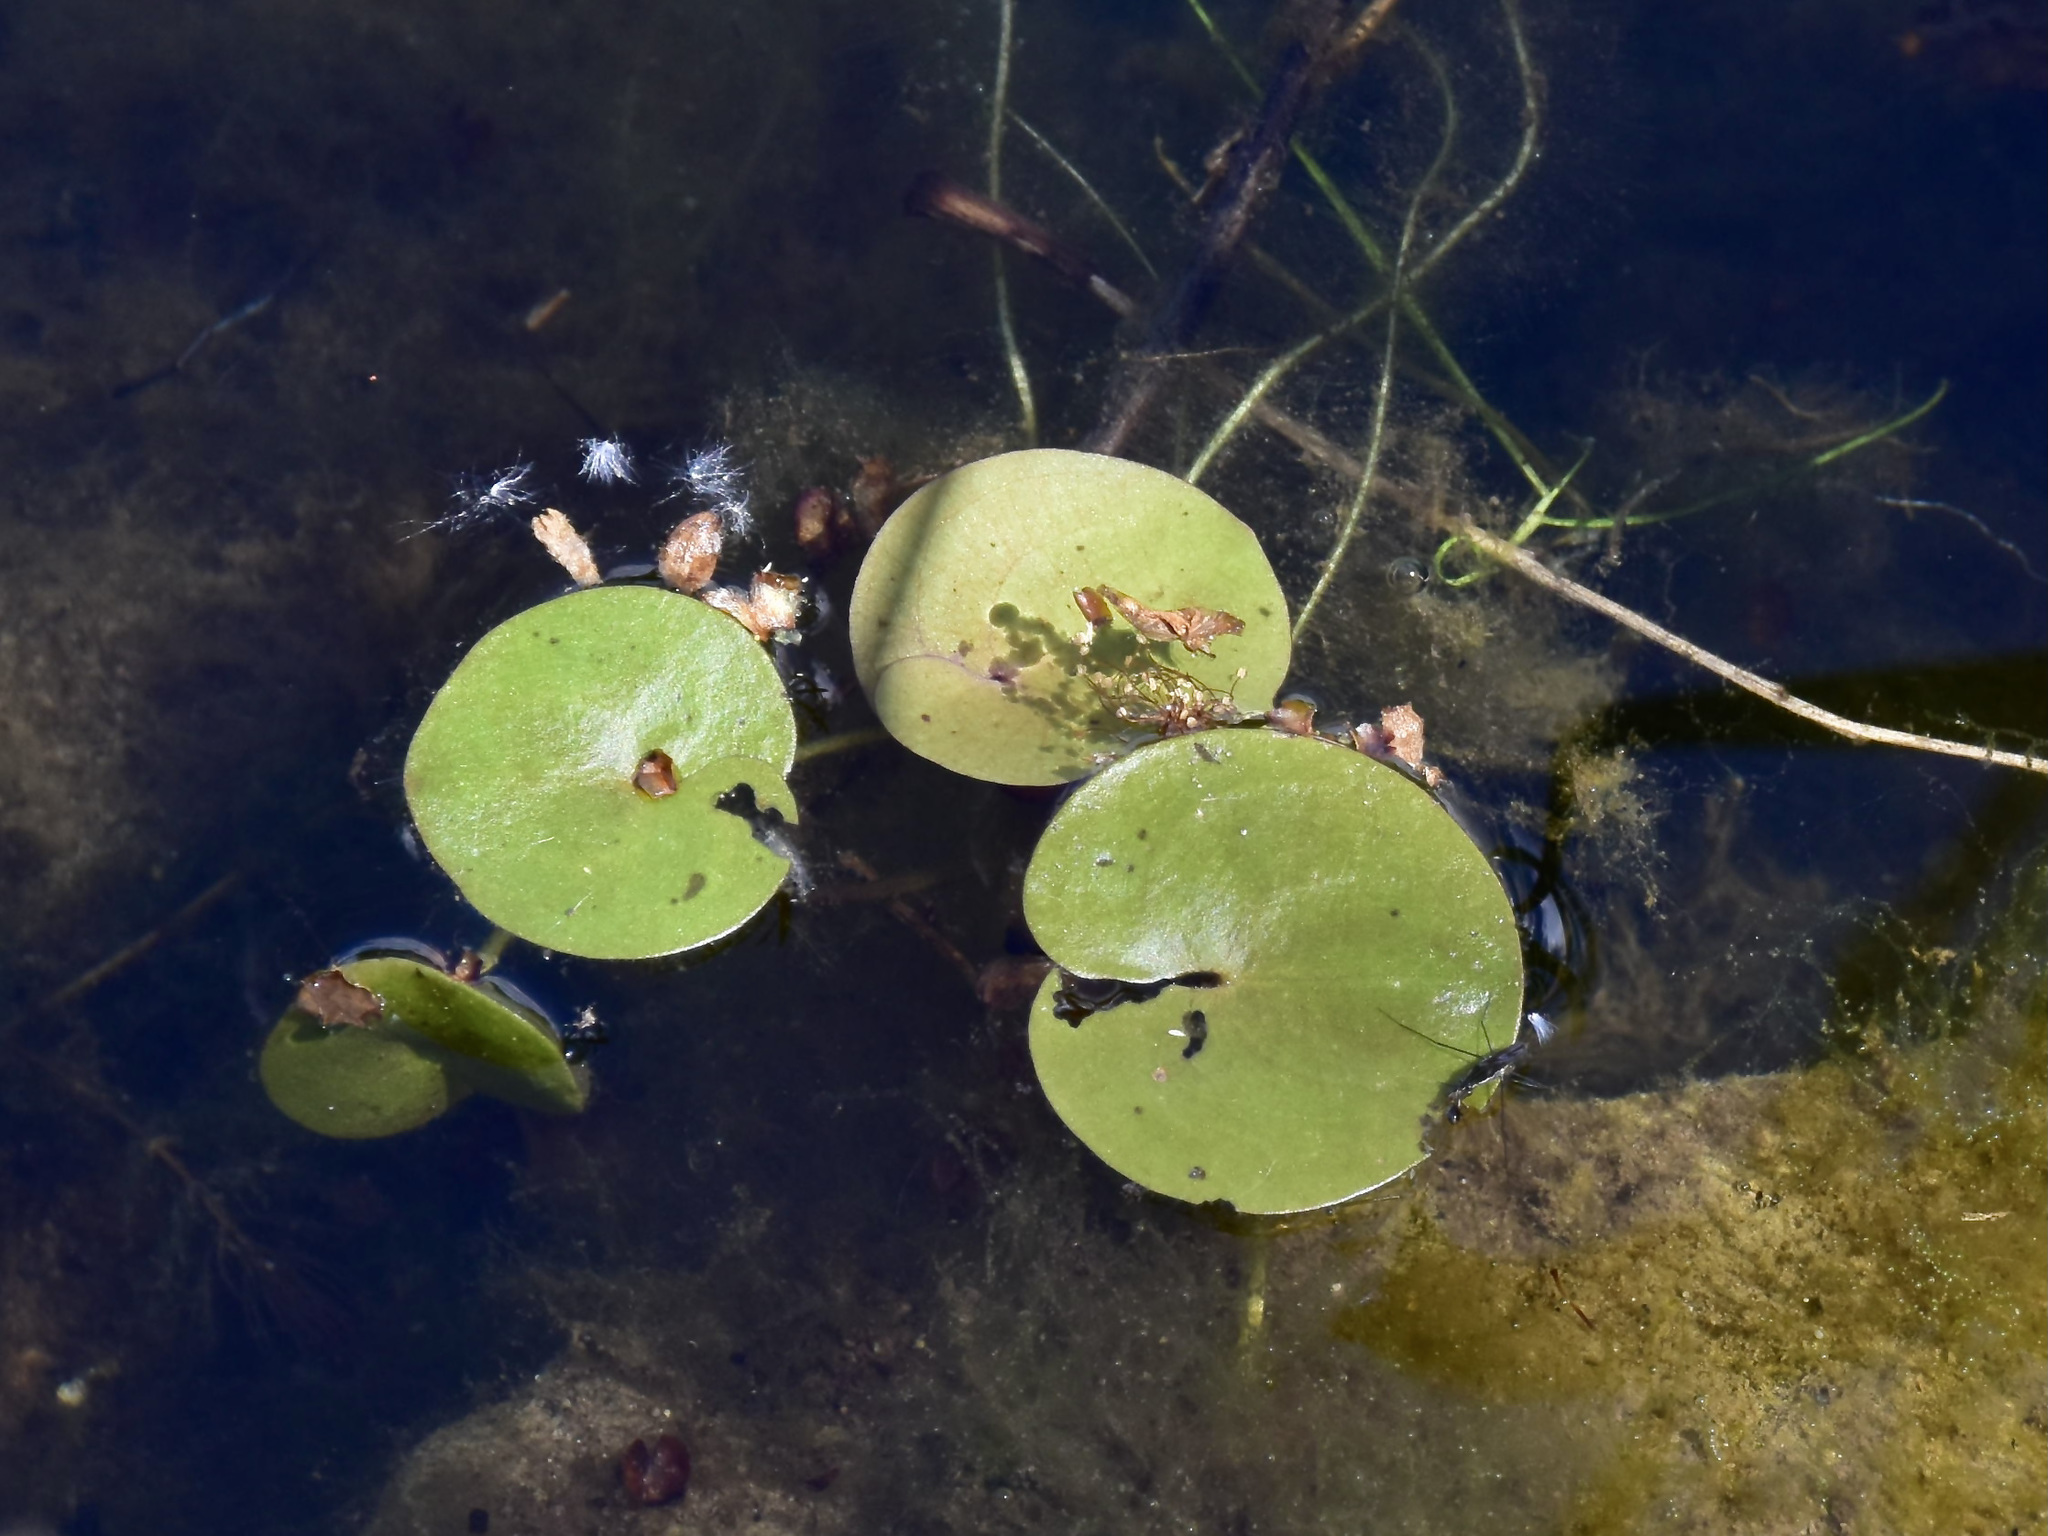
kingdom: Plantae
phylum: Tracheophyta
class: Liliopsida
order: Alismatales
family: Hydrocharitaceae
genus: Hydrocharis
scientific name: Hydrocharis morsus-ranae
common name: Frogbit
